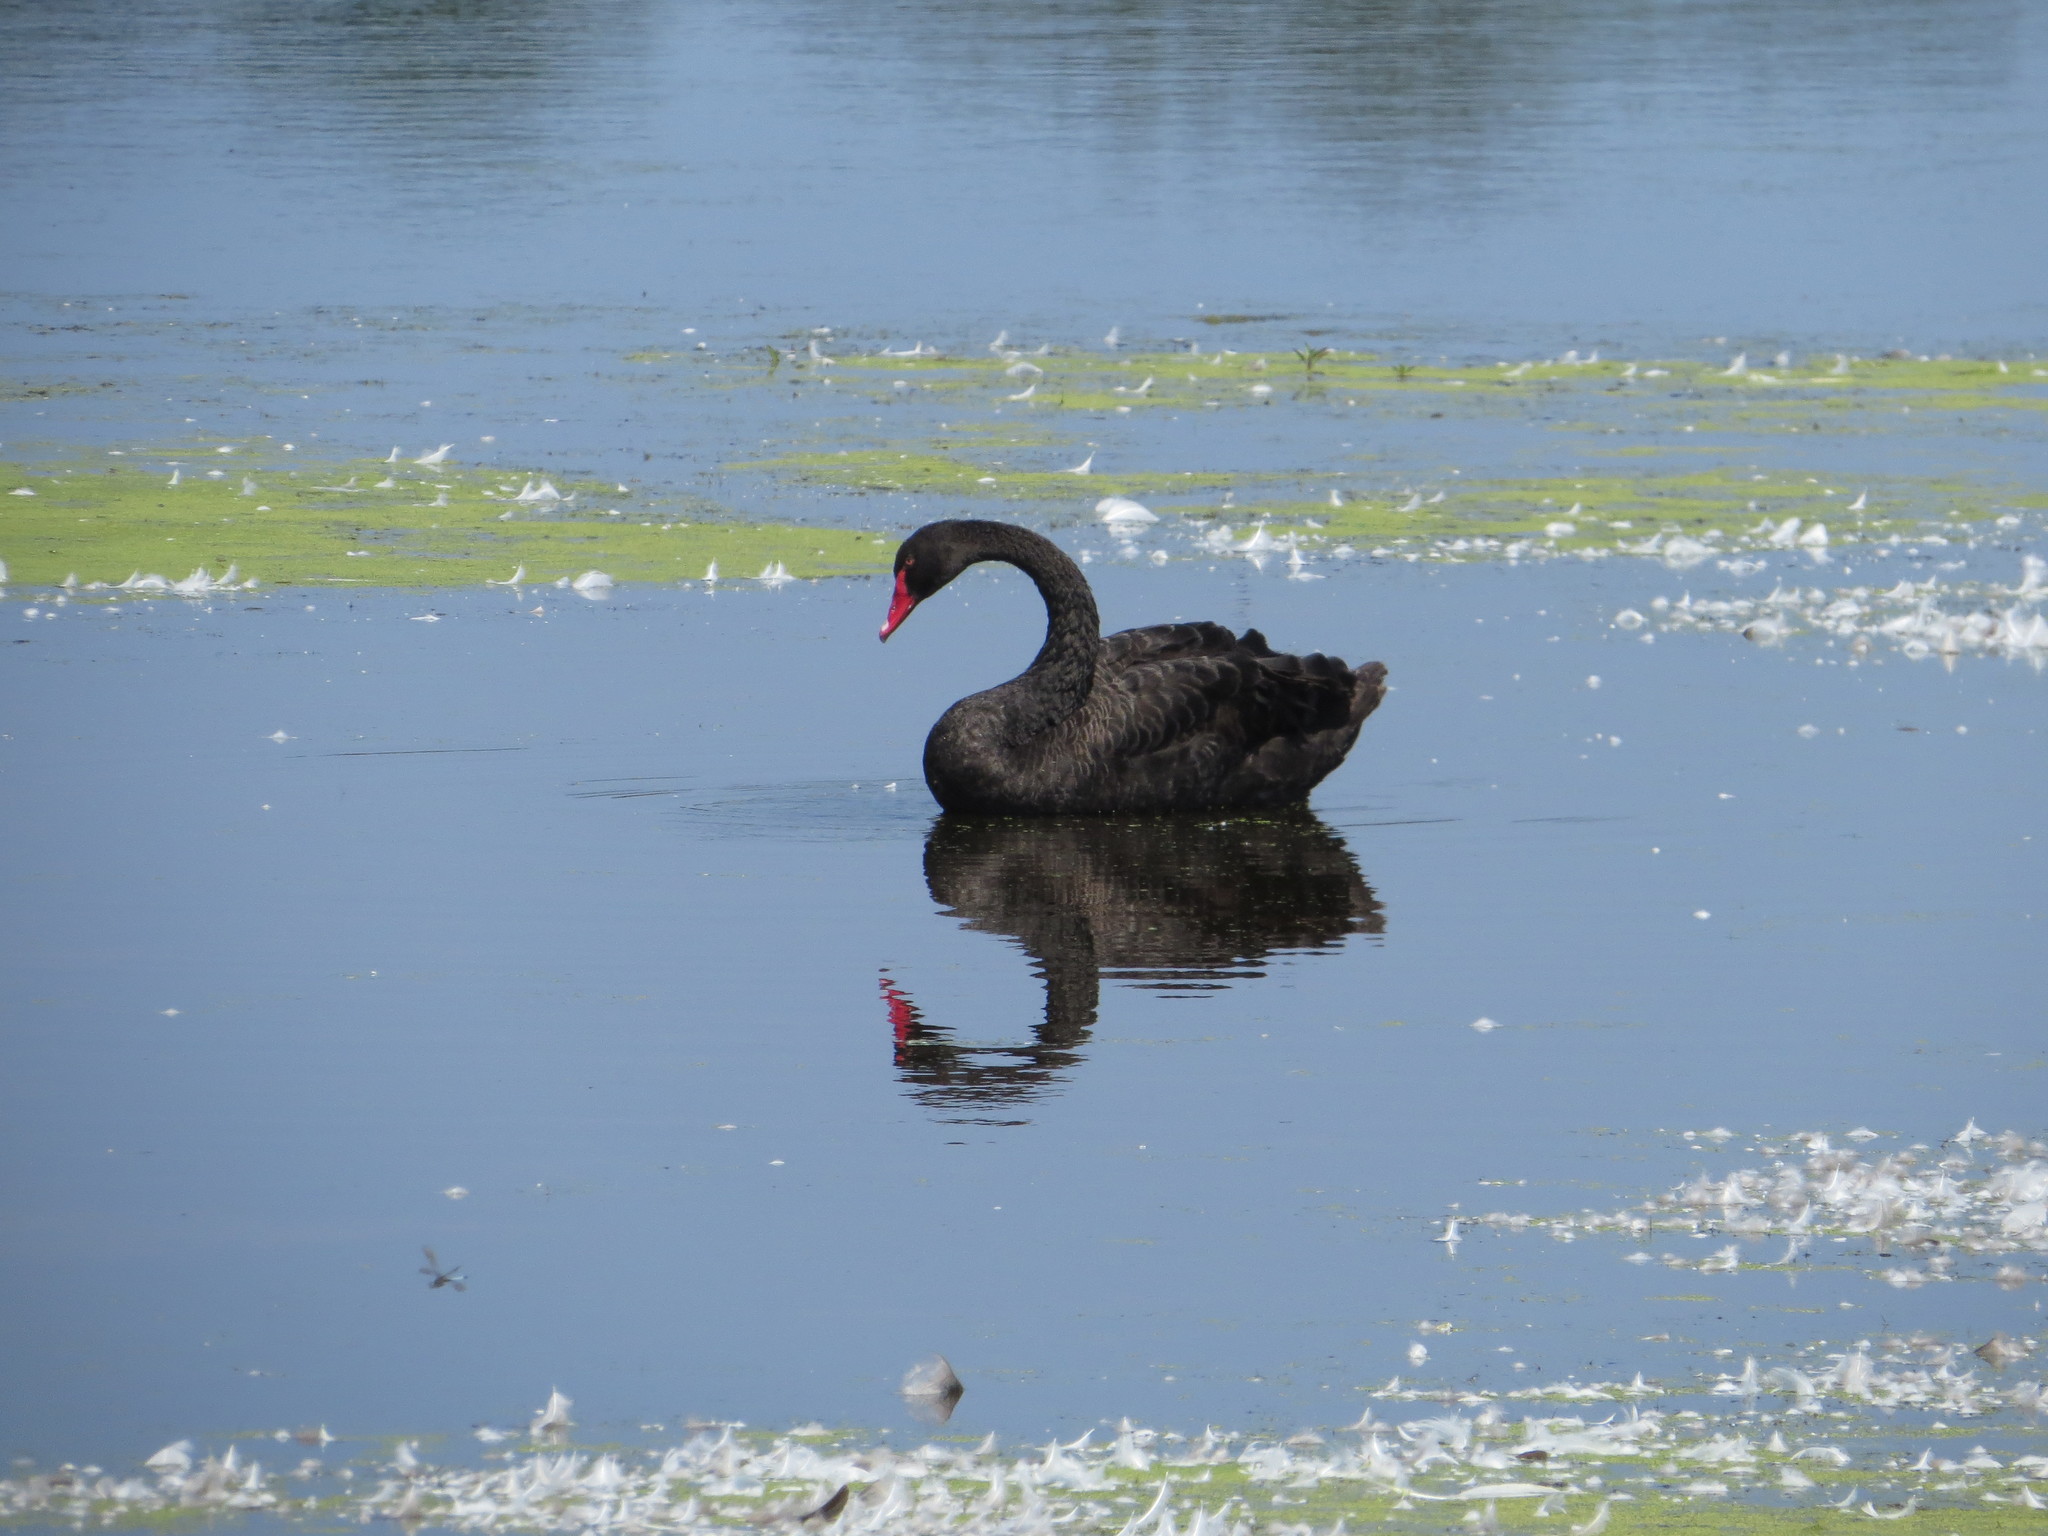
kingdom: Animalia
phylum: Chordata
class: Aves
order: Anseriformes
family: Anatidae
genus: Cygnus
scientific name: Cygnus atratus
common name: Black swan
